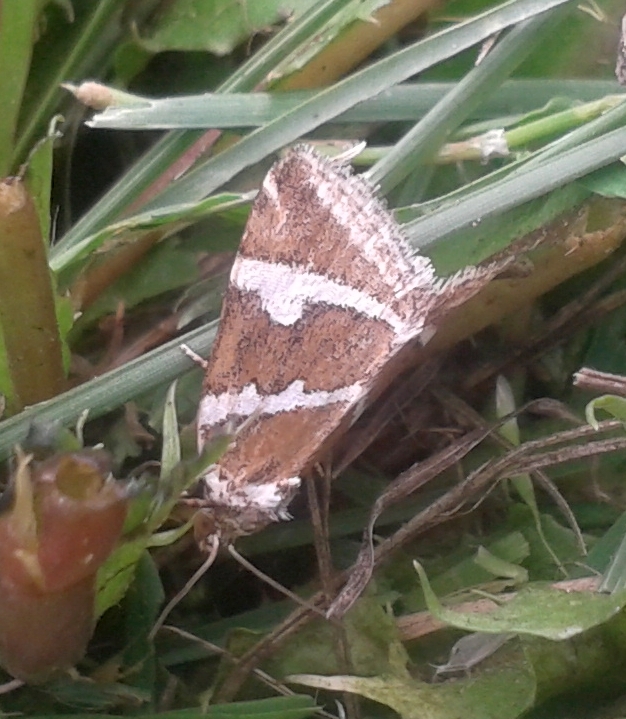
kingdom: Animalia
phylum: Arthropoda
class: Insecta
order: Lepidoptera
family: Noctuidae
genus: Deltote
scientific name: Deltote bankiana
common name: Silver barred
